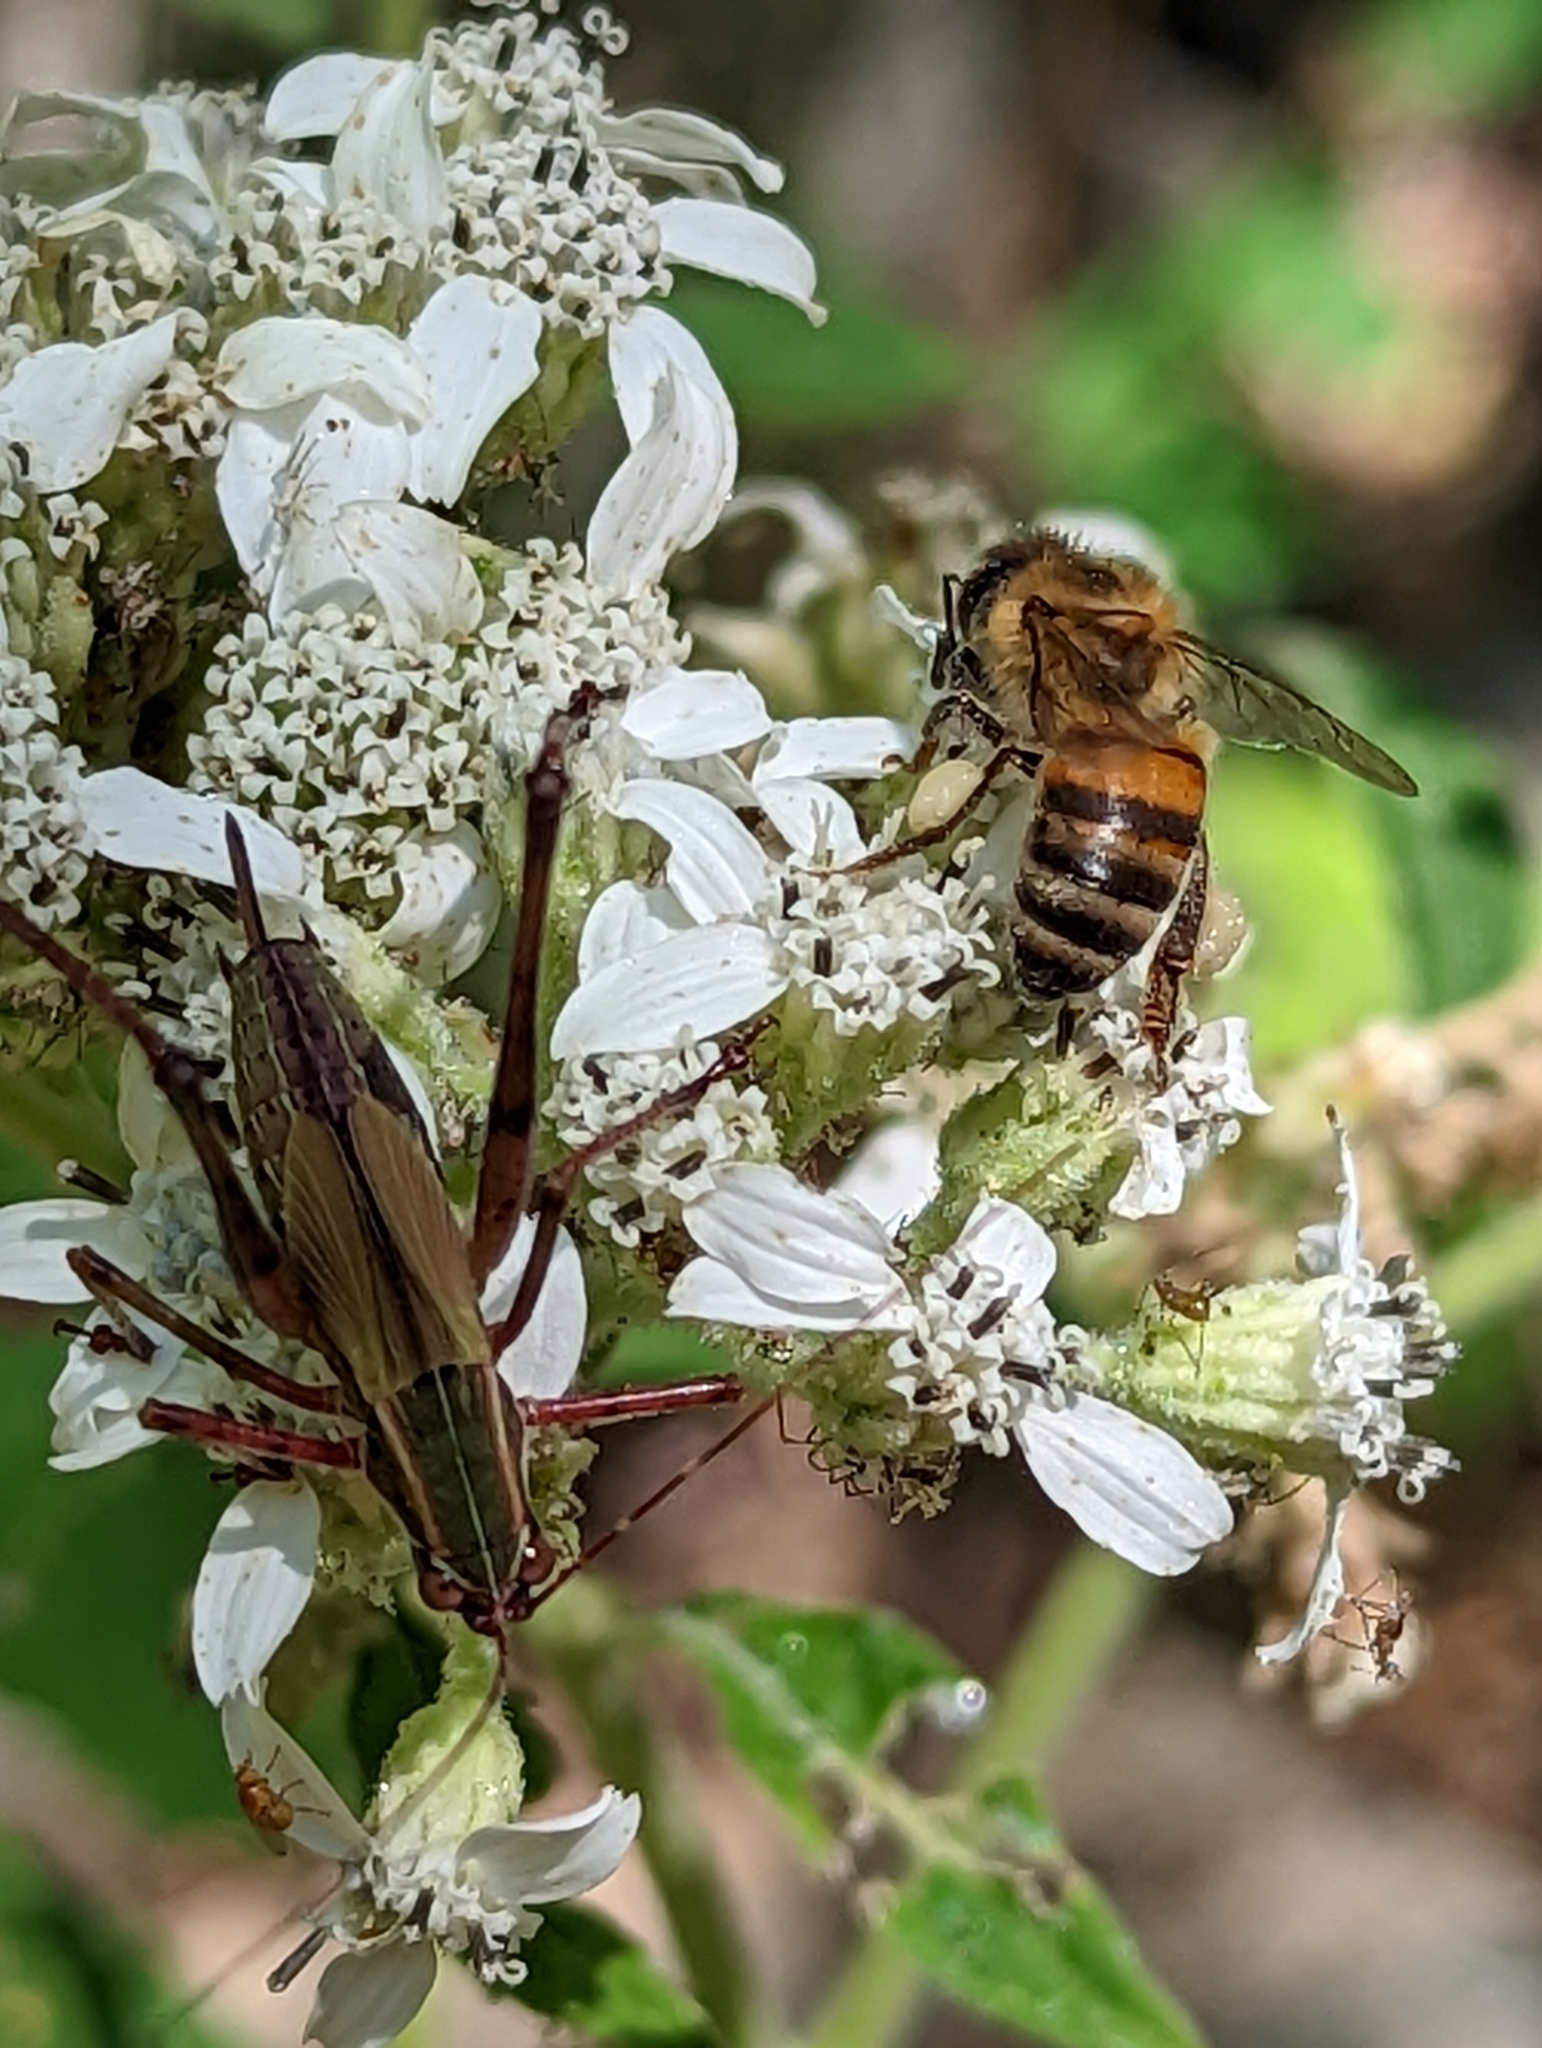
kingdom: Animalia
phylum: Arthropoda
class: Insecta
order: Hymenoptera
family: Apidae
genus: Apis
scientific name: Apis mellifera
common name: Honey bee
